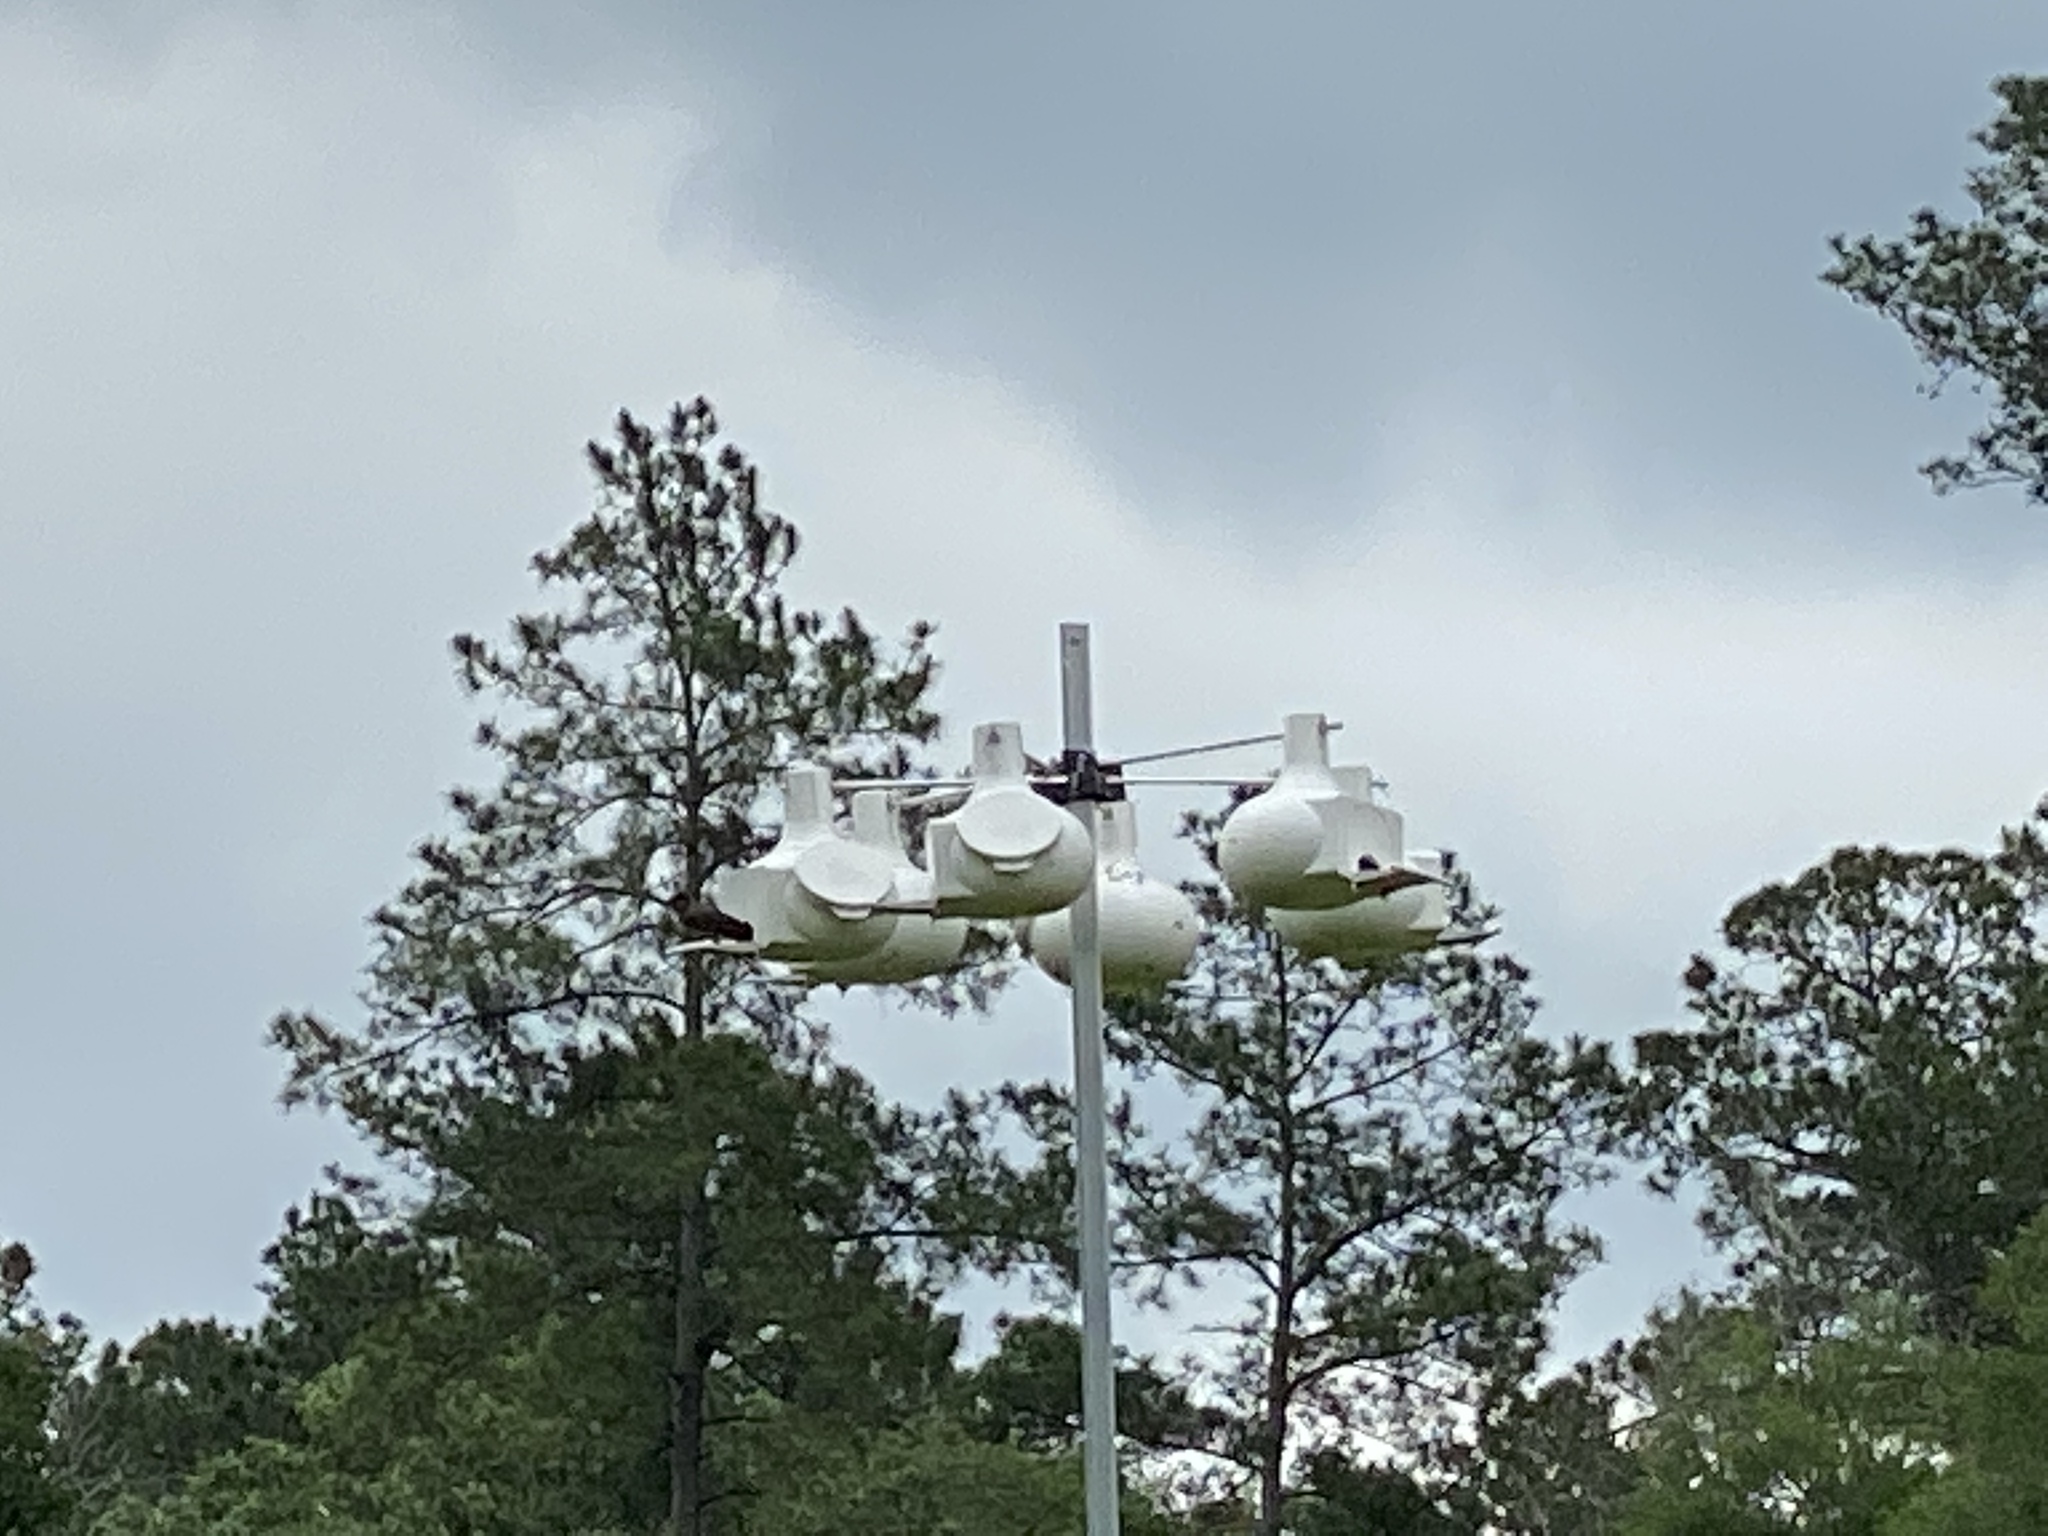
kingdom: Animalia
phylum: Chordata
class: Aves
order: Passeriformes
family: Hirundinidae
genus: Progne
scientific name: Progne subis
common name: Purple martin
